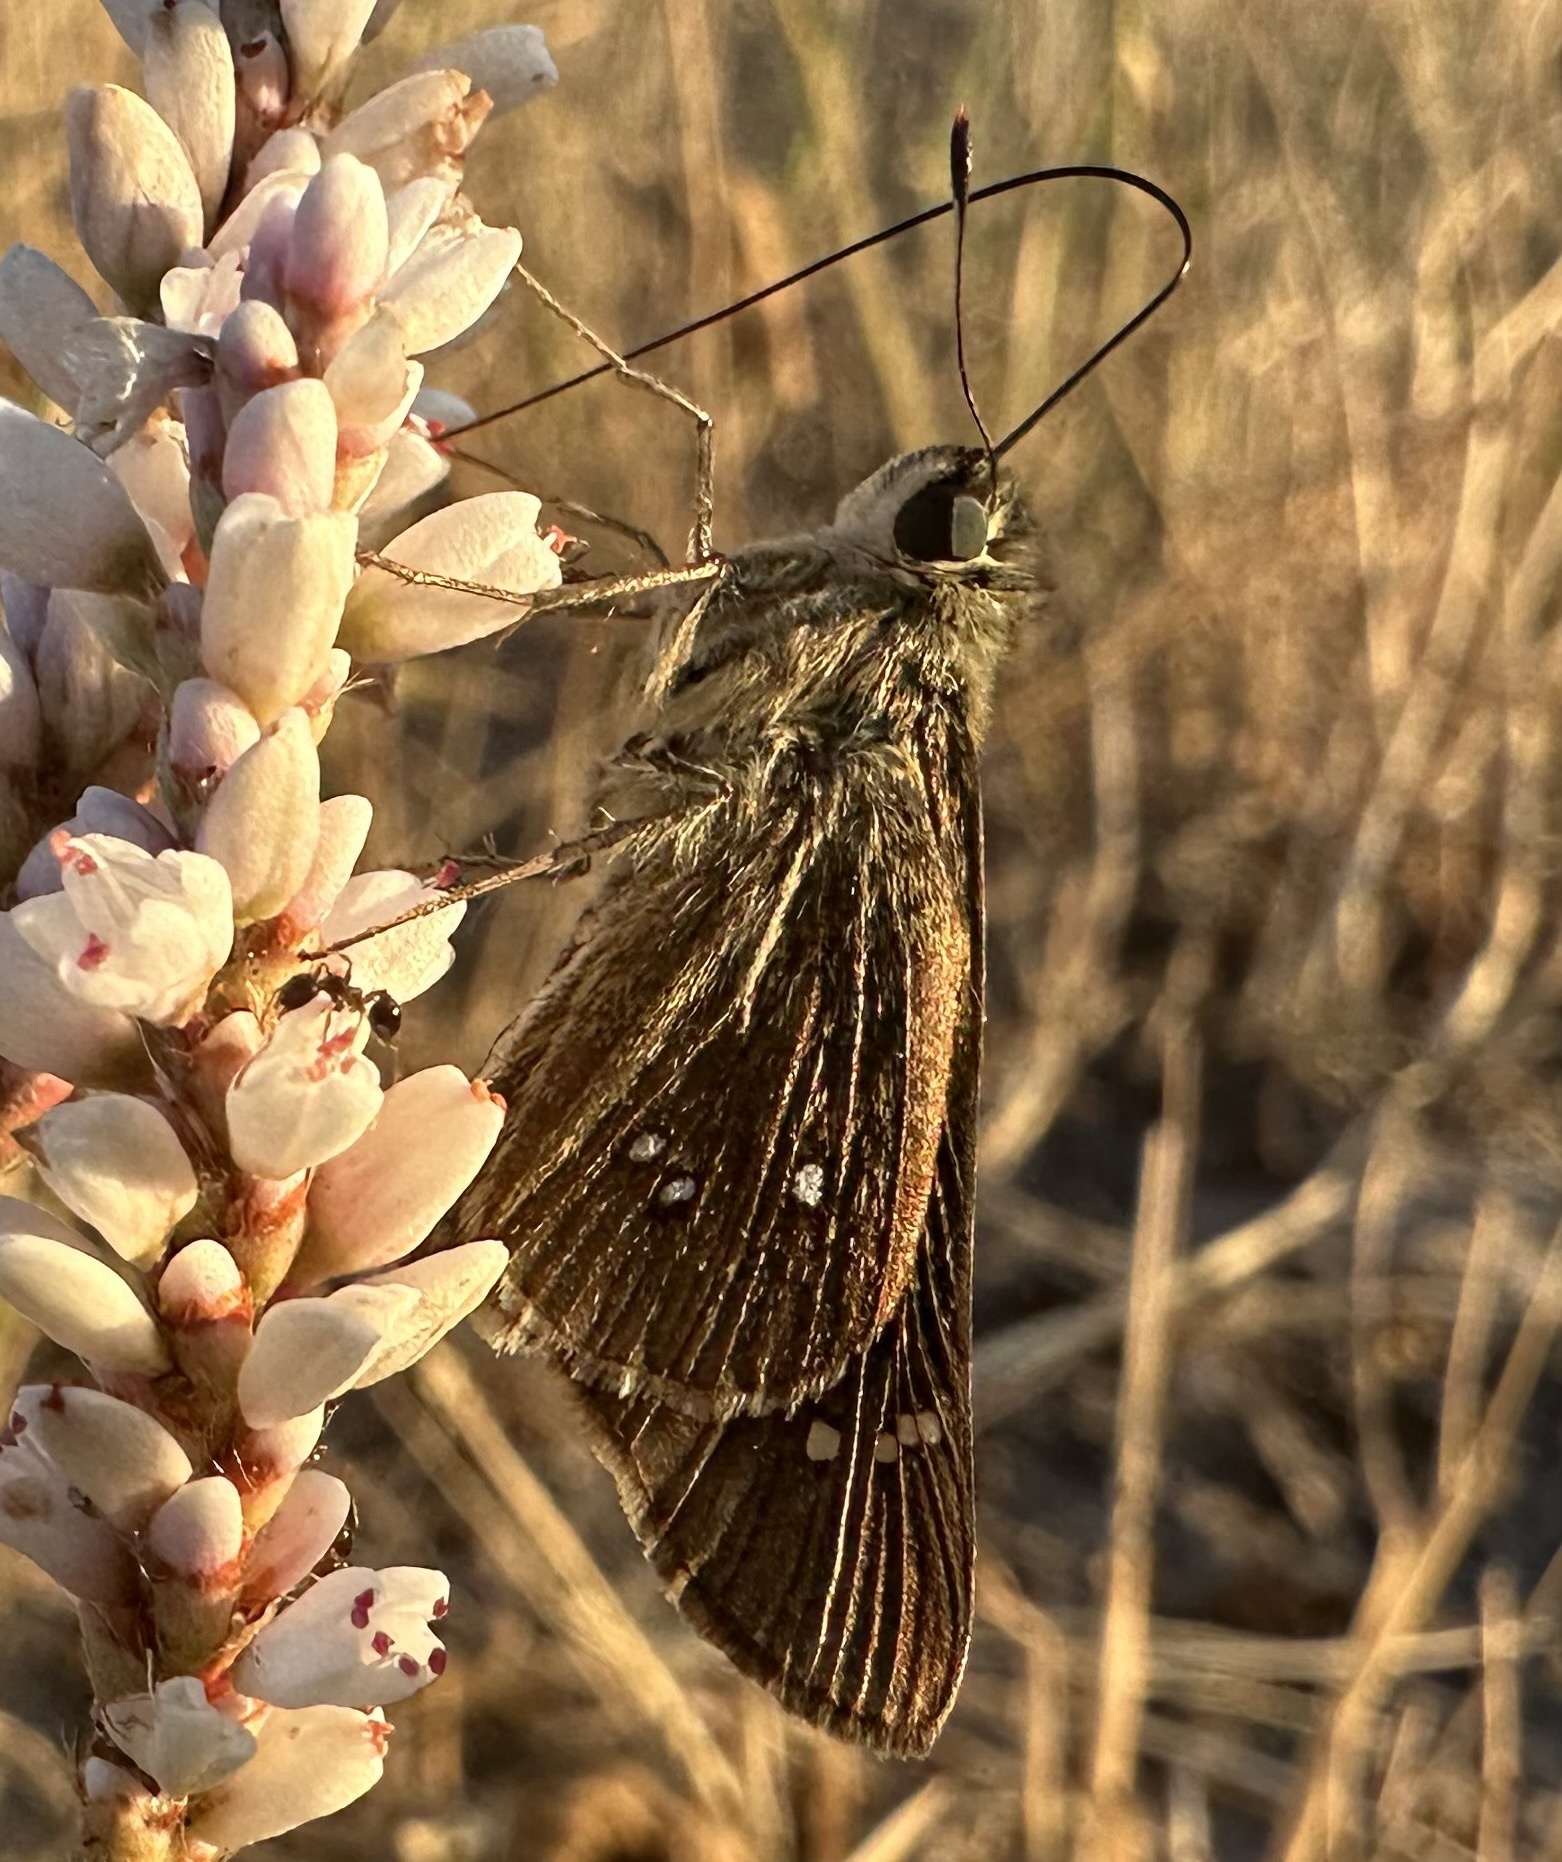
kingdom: Animalia
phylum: Arthropoda
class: Insecta
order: Lepidoptera
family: Hesperiidae
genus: Borbo
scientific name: Borbo borbonica
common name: Olive-haired swift
